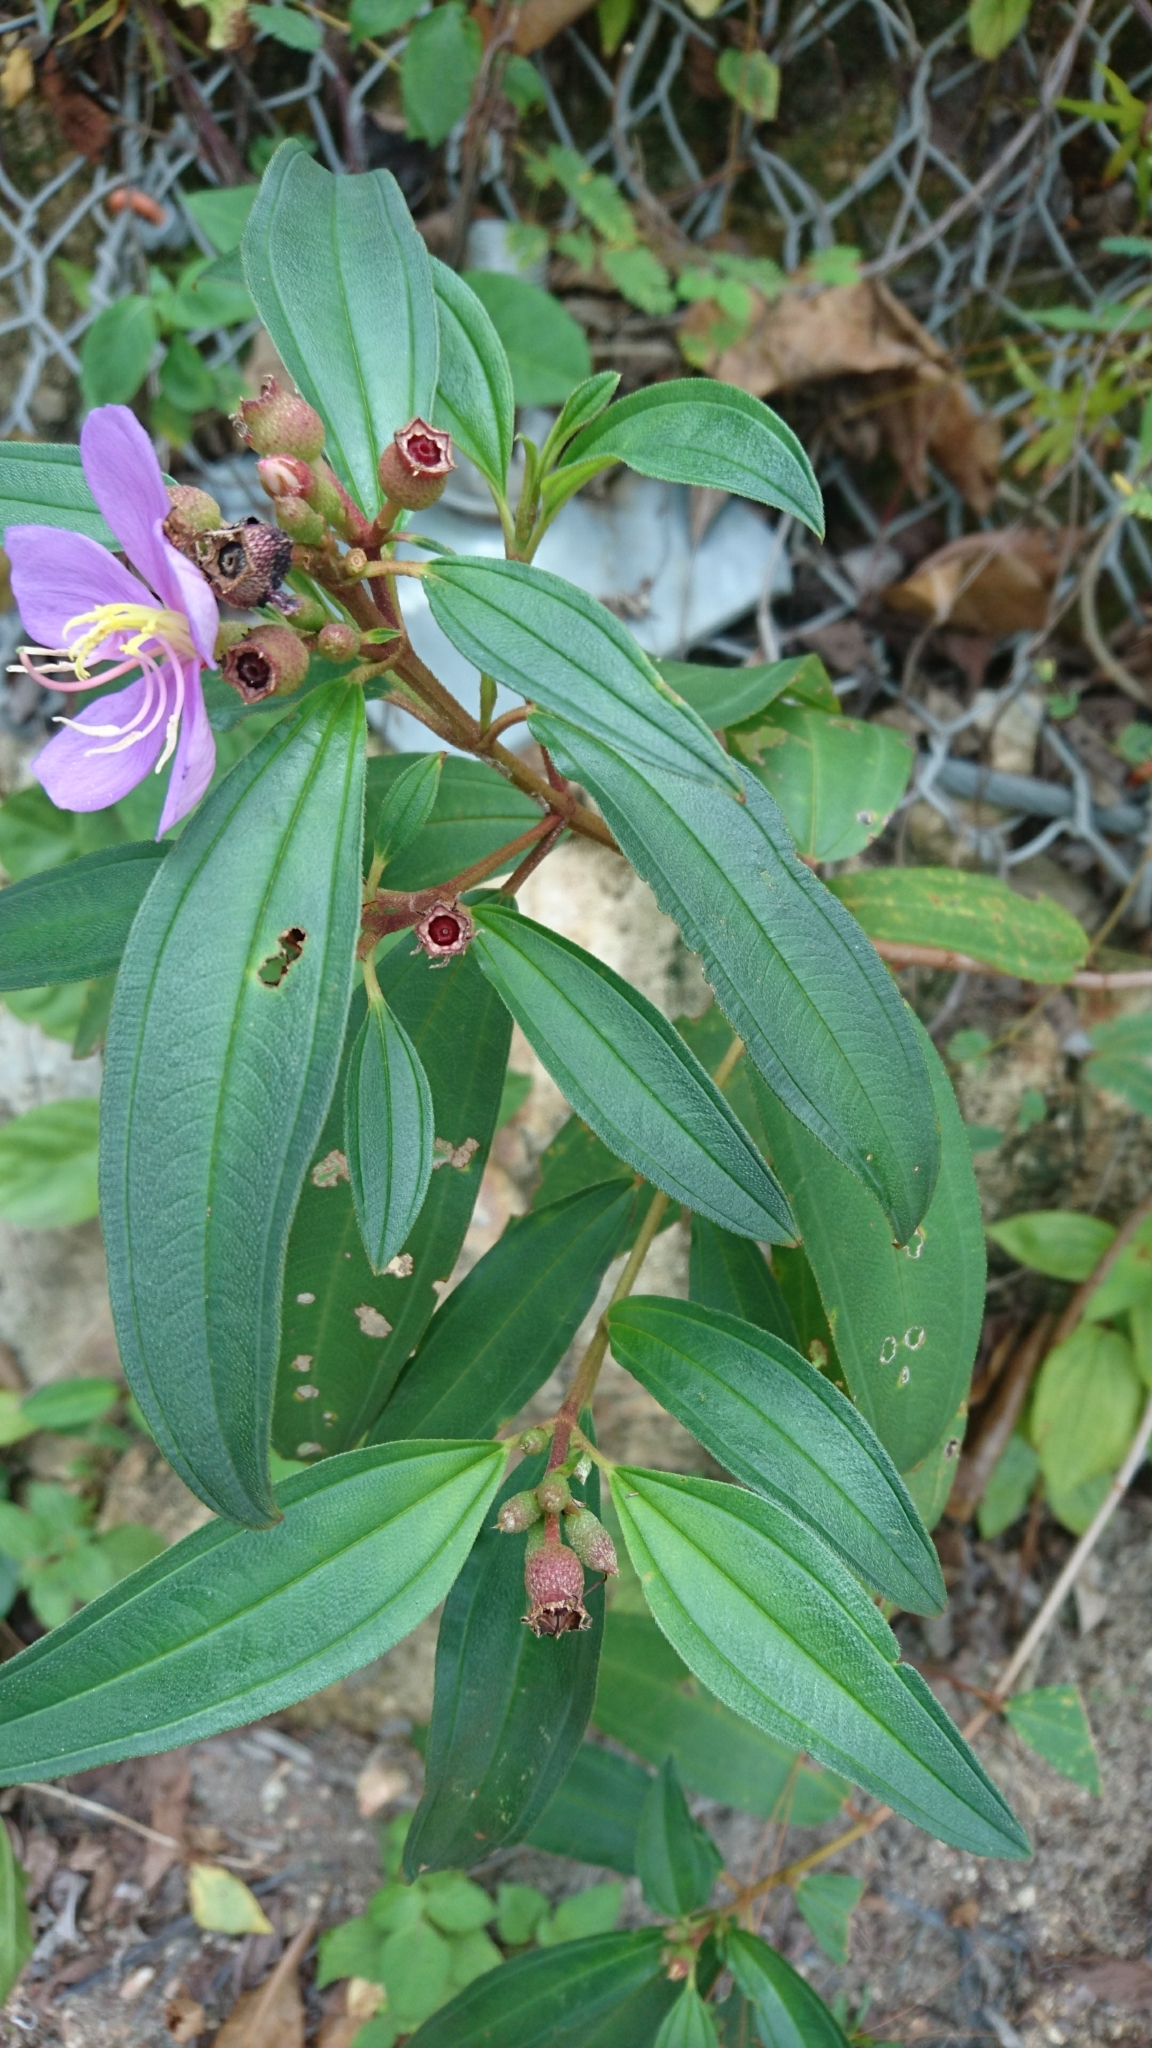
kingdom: Plantae
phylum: Tracheophyta
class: Magnoliopsida
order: Myrtales
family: Melastomataceae
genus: Melastoma
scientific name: Melastoma malabathricum
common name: Indian-rhododendron
